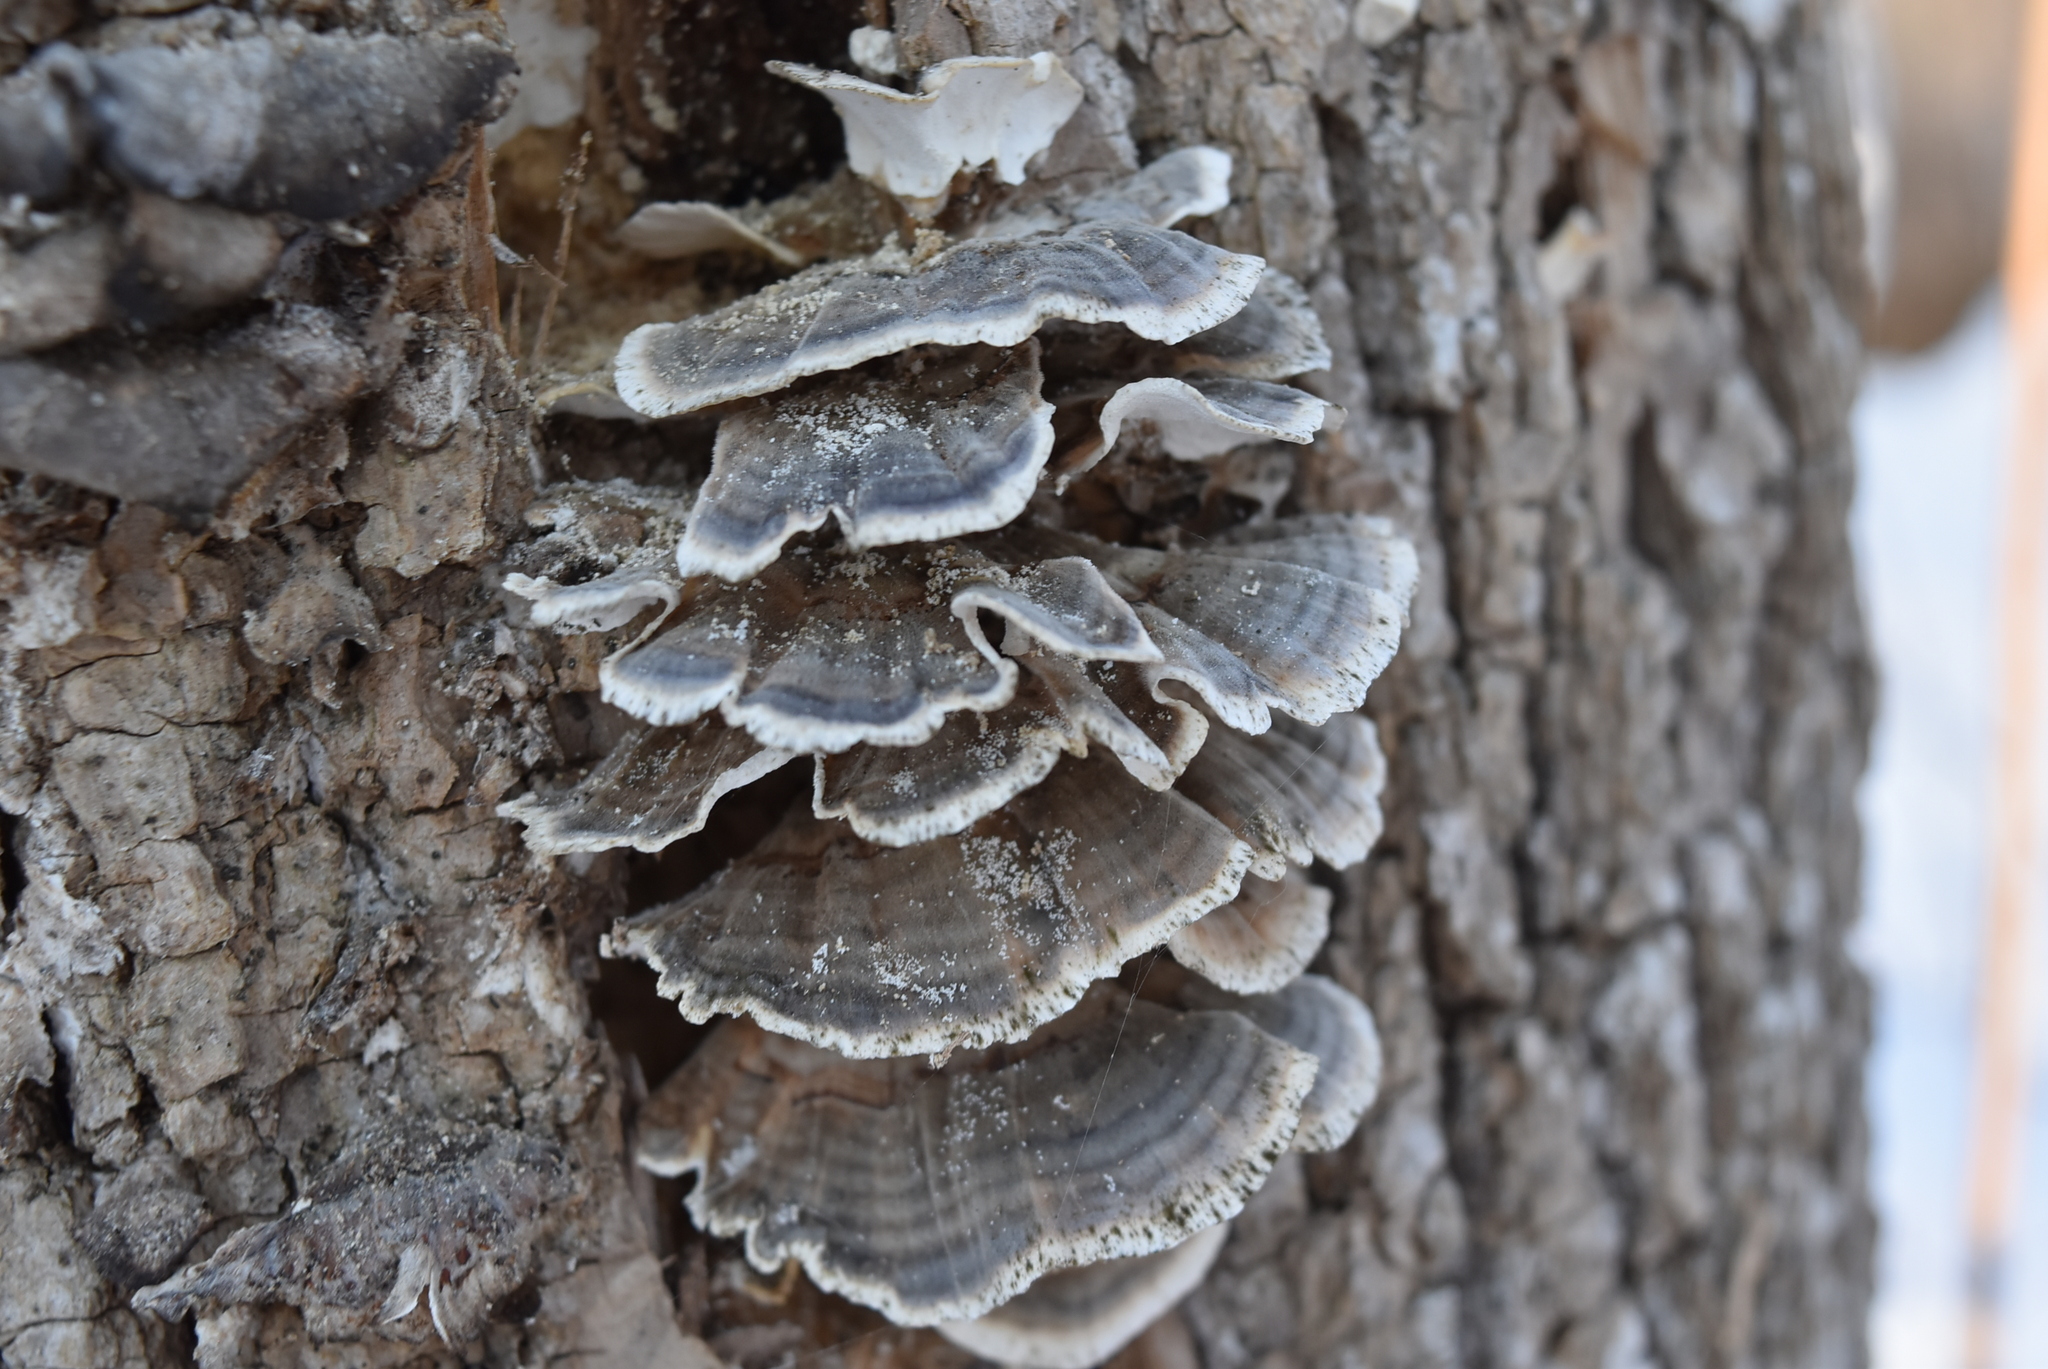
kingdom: Fungi
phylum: Basidiomycota
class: Agaricomycetes
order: Polyporales
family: Polyporaceae
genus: Trametes
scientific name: Trametes versicolor
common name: Turkeytail
